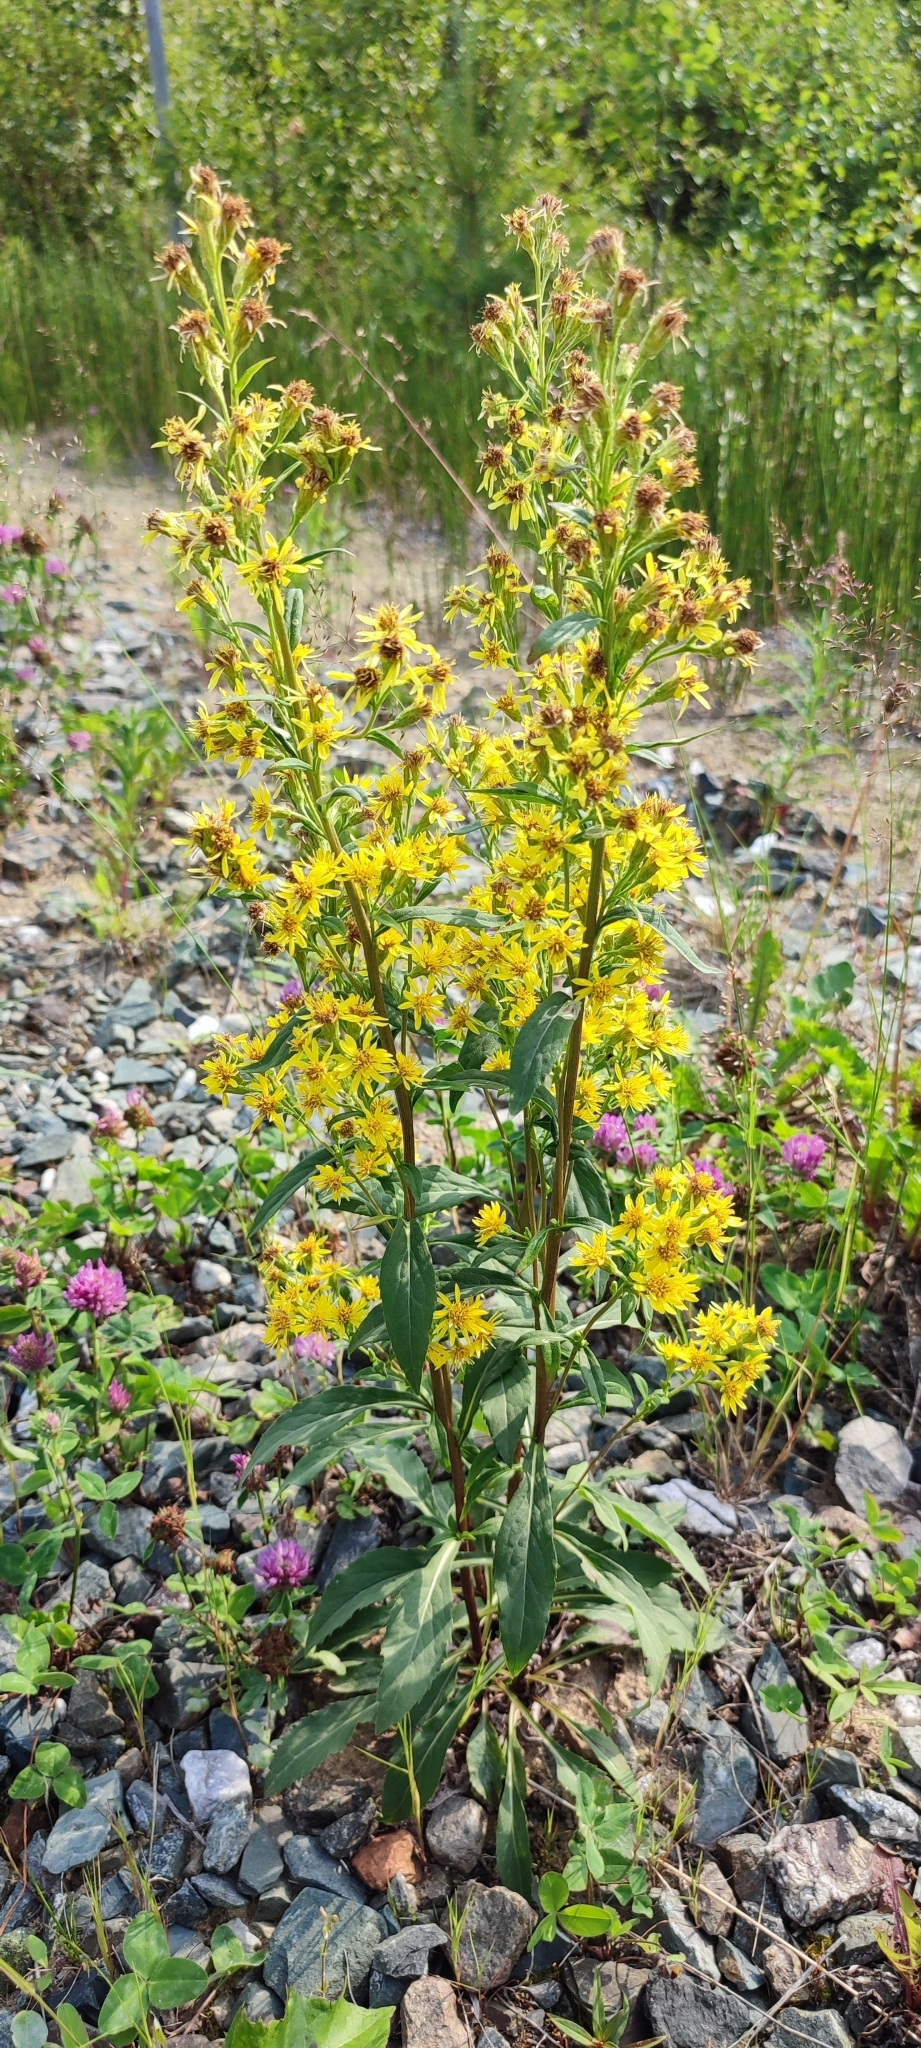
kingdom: Plantae
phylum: Tracheophyta
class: Magnoliopsida
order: Asterales
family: Asteraceae
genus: Solidago
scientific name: Solidago virgaurea
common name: Goldenrod
